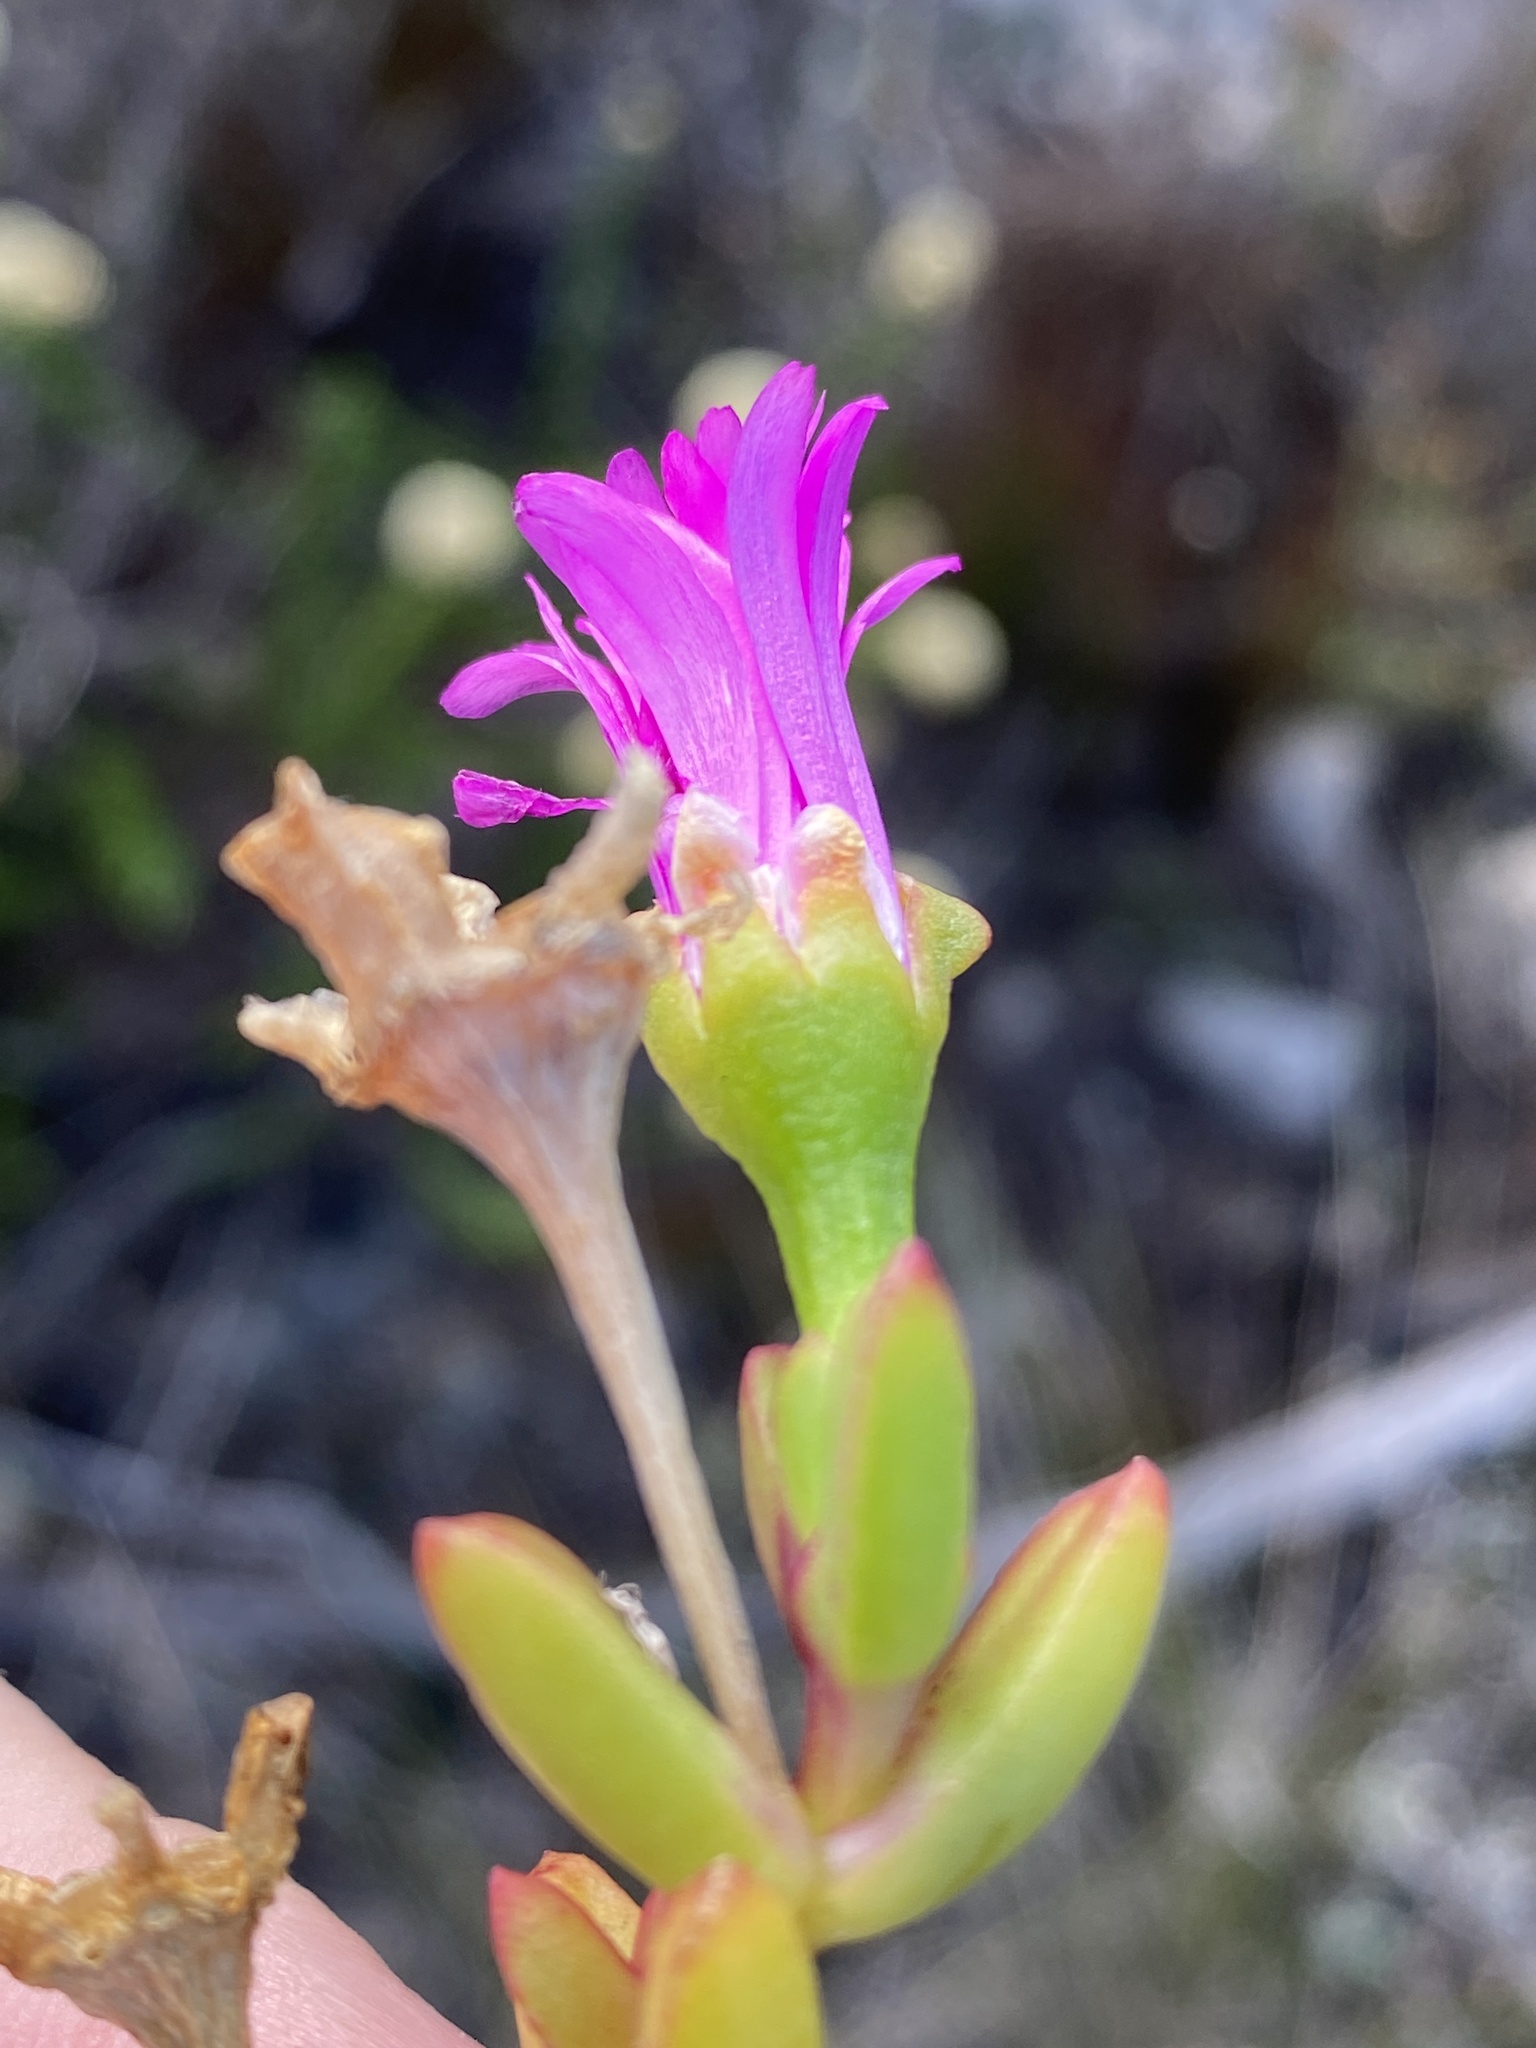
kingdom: Plantae
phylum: Tracheophyta
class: Magnoliopsida
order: Caryophyllales
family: Aizoaceae
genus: Ruschia
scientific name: Ruschia leptocalyx
